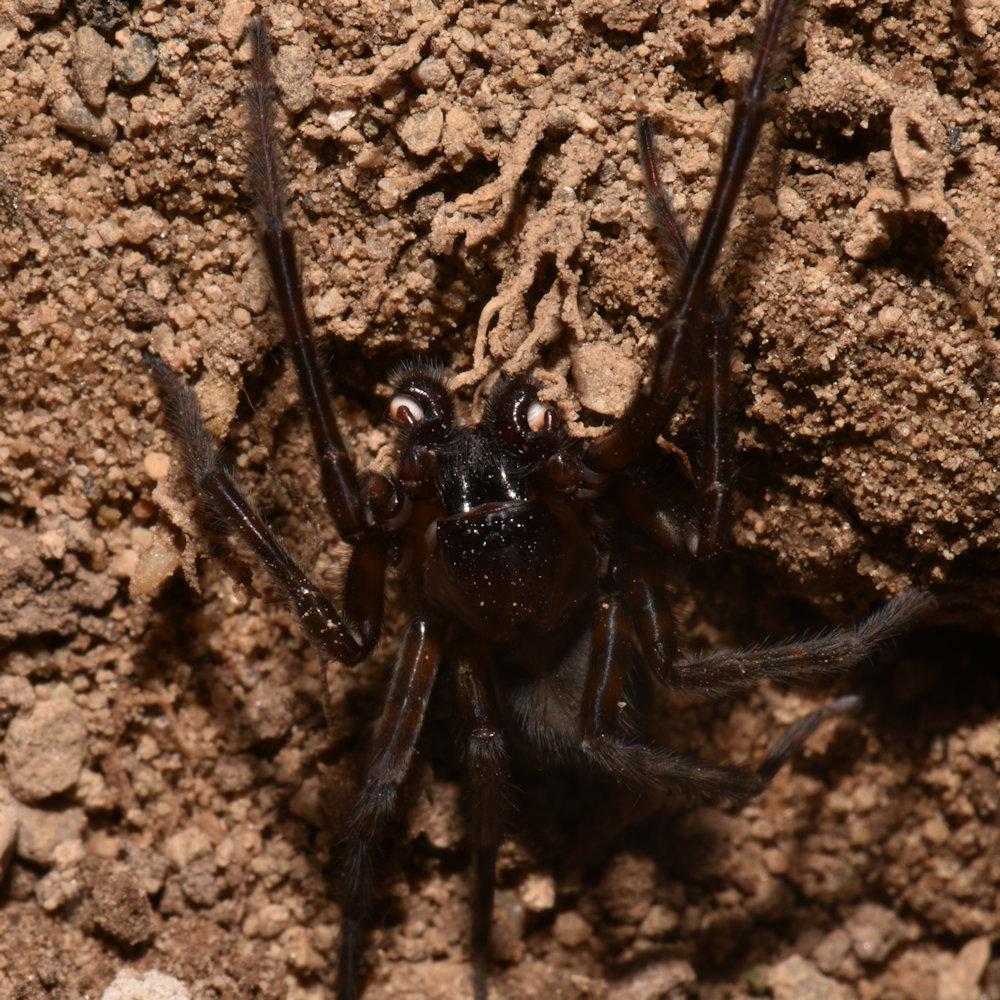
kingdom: Animalia
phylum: Arthropoda
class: Arachnida
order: Araneae
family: Amaurobiidae
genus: Amaurobius
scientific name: Amaurobius ferox
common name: Black laceweaver
